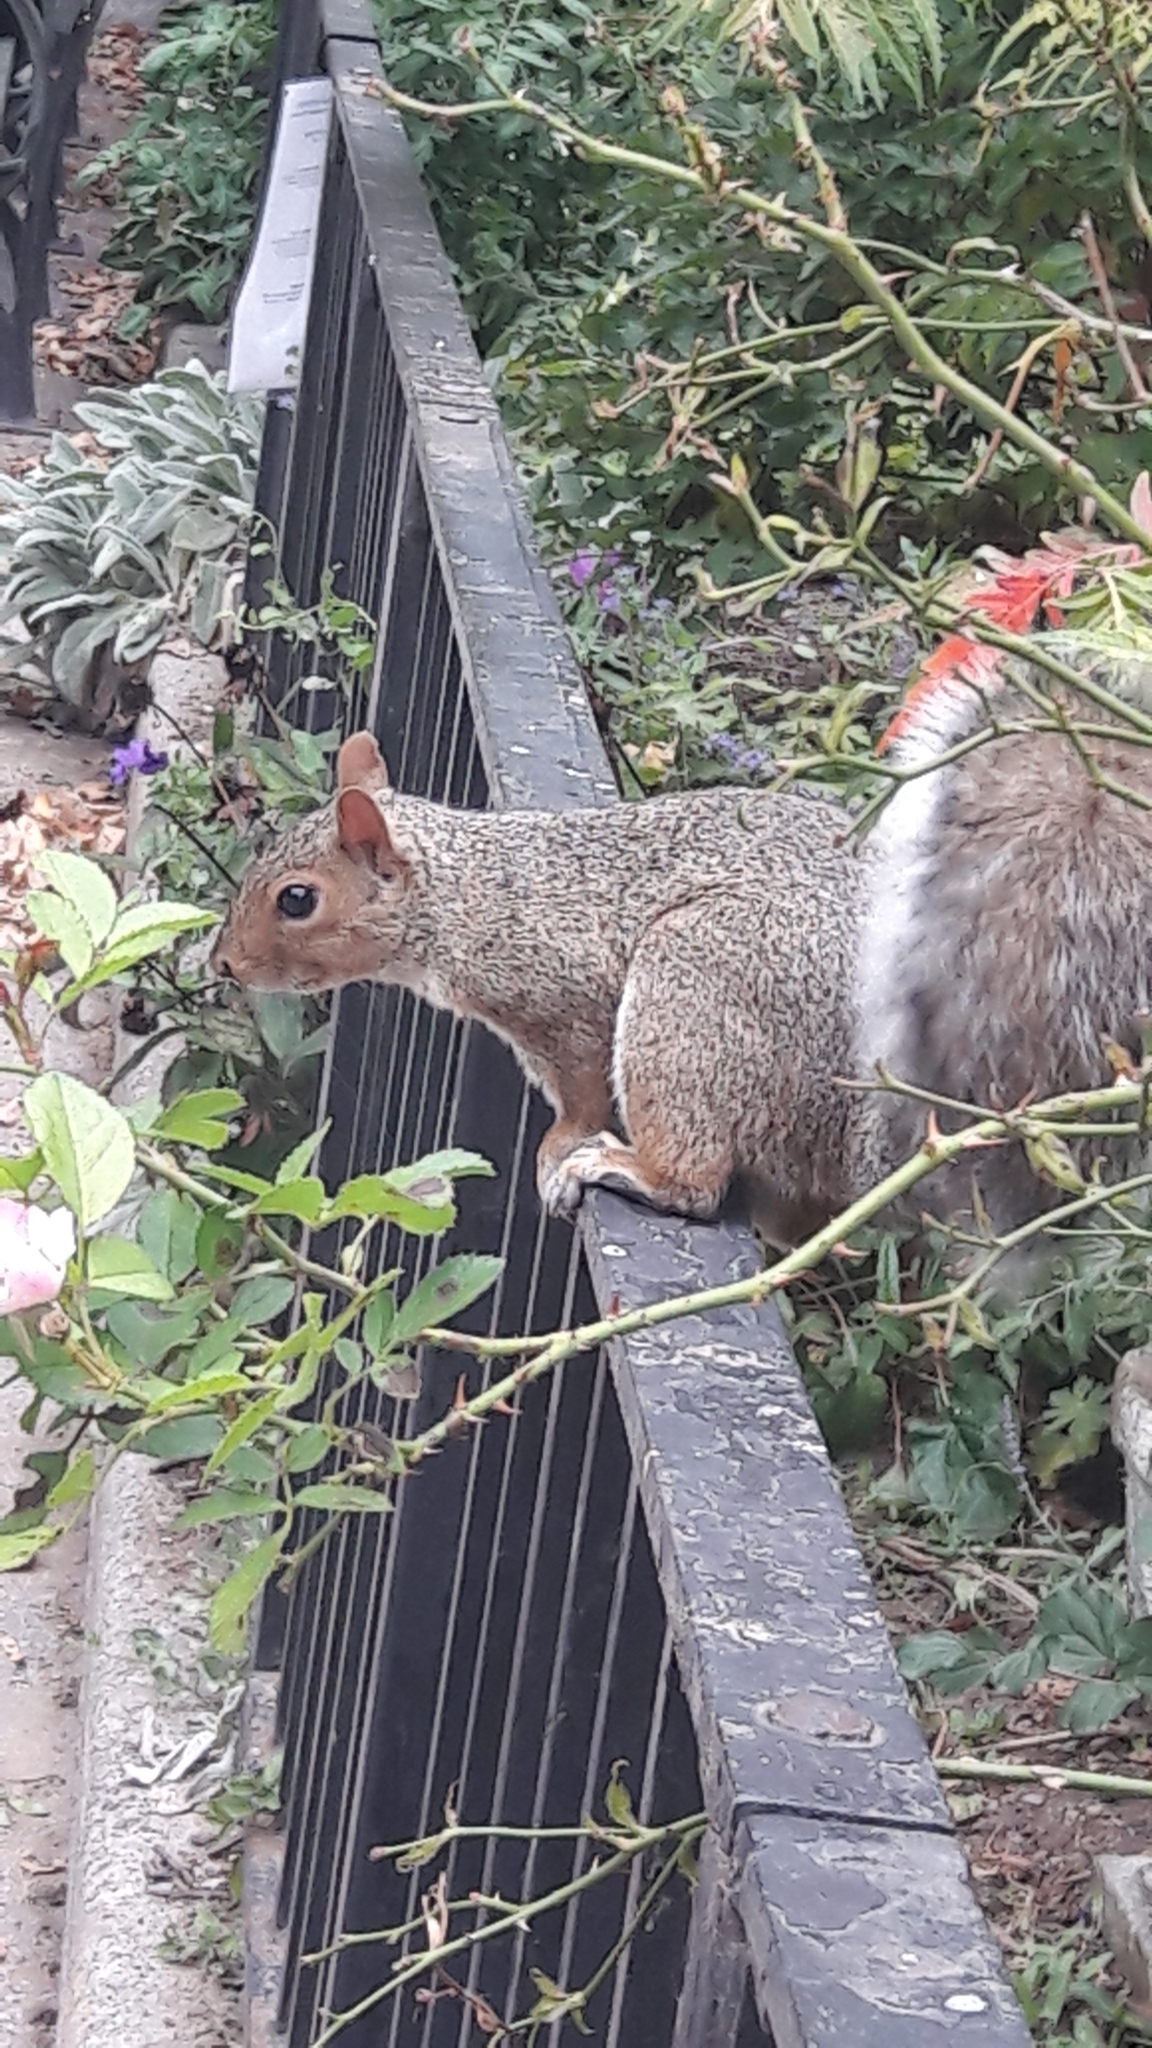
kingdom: Animalia
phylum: Chordata
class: Mammalia
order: Rodentia
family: Sciuridae
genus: Sciurus
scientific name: Sciurus carolinensis
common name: Eastern gray squirrel
